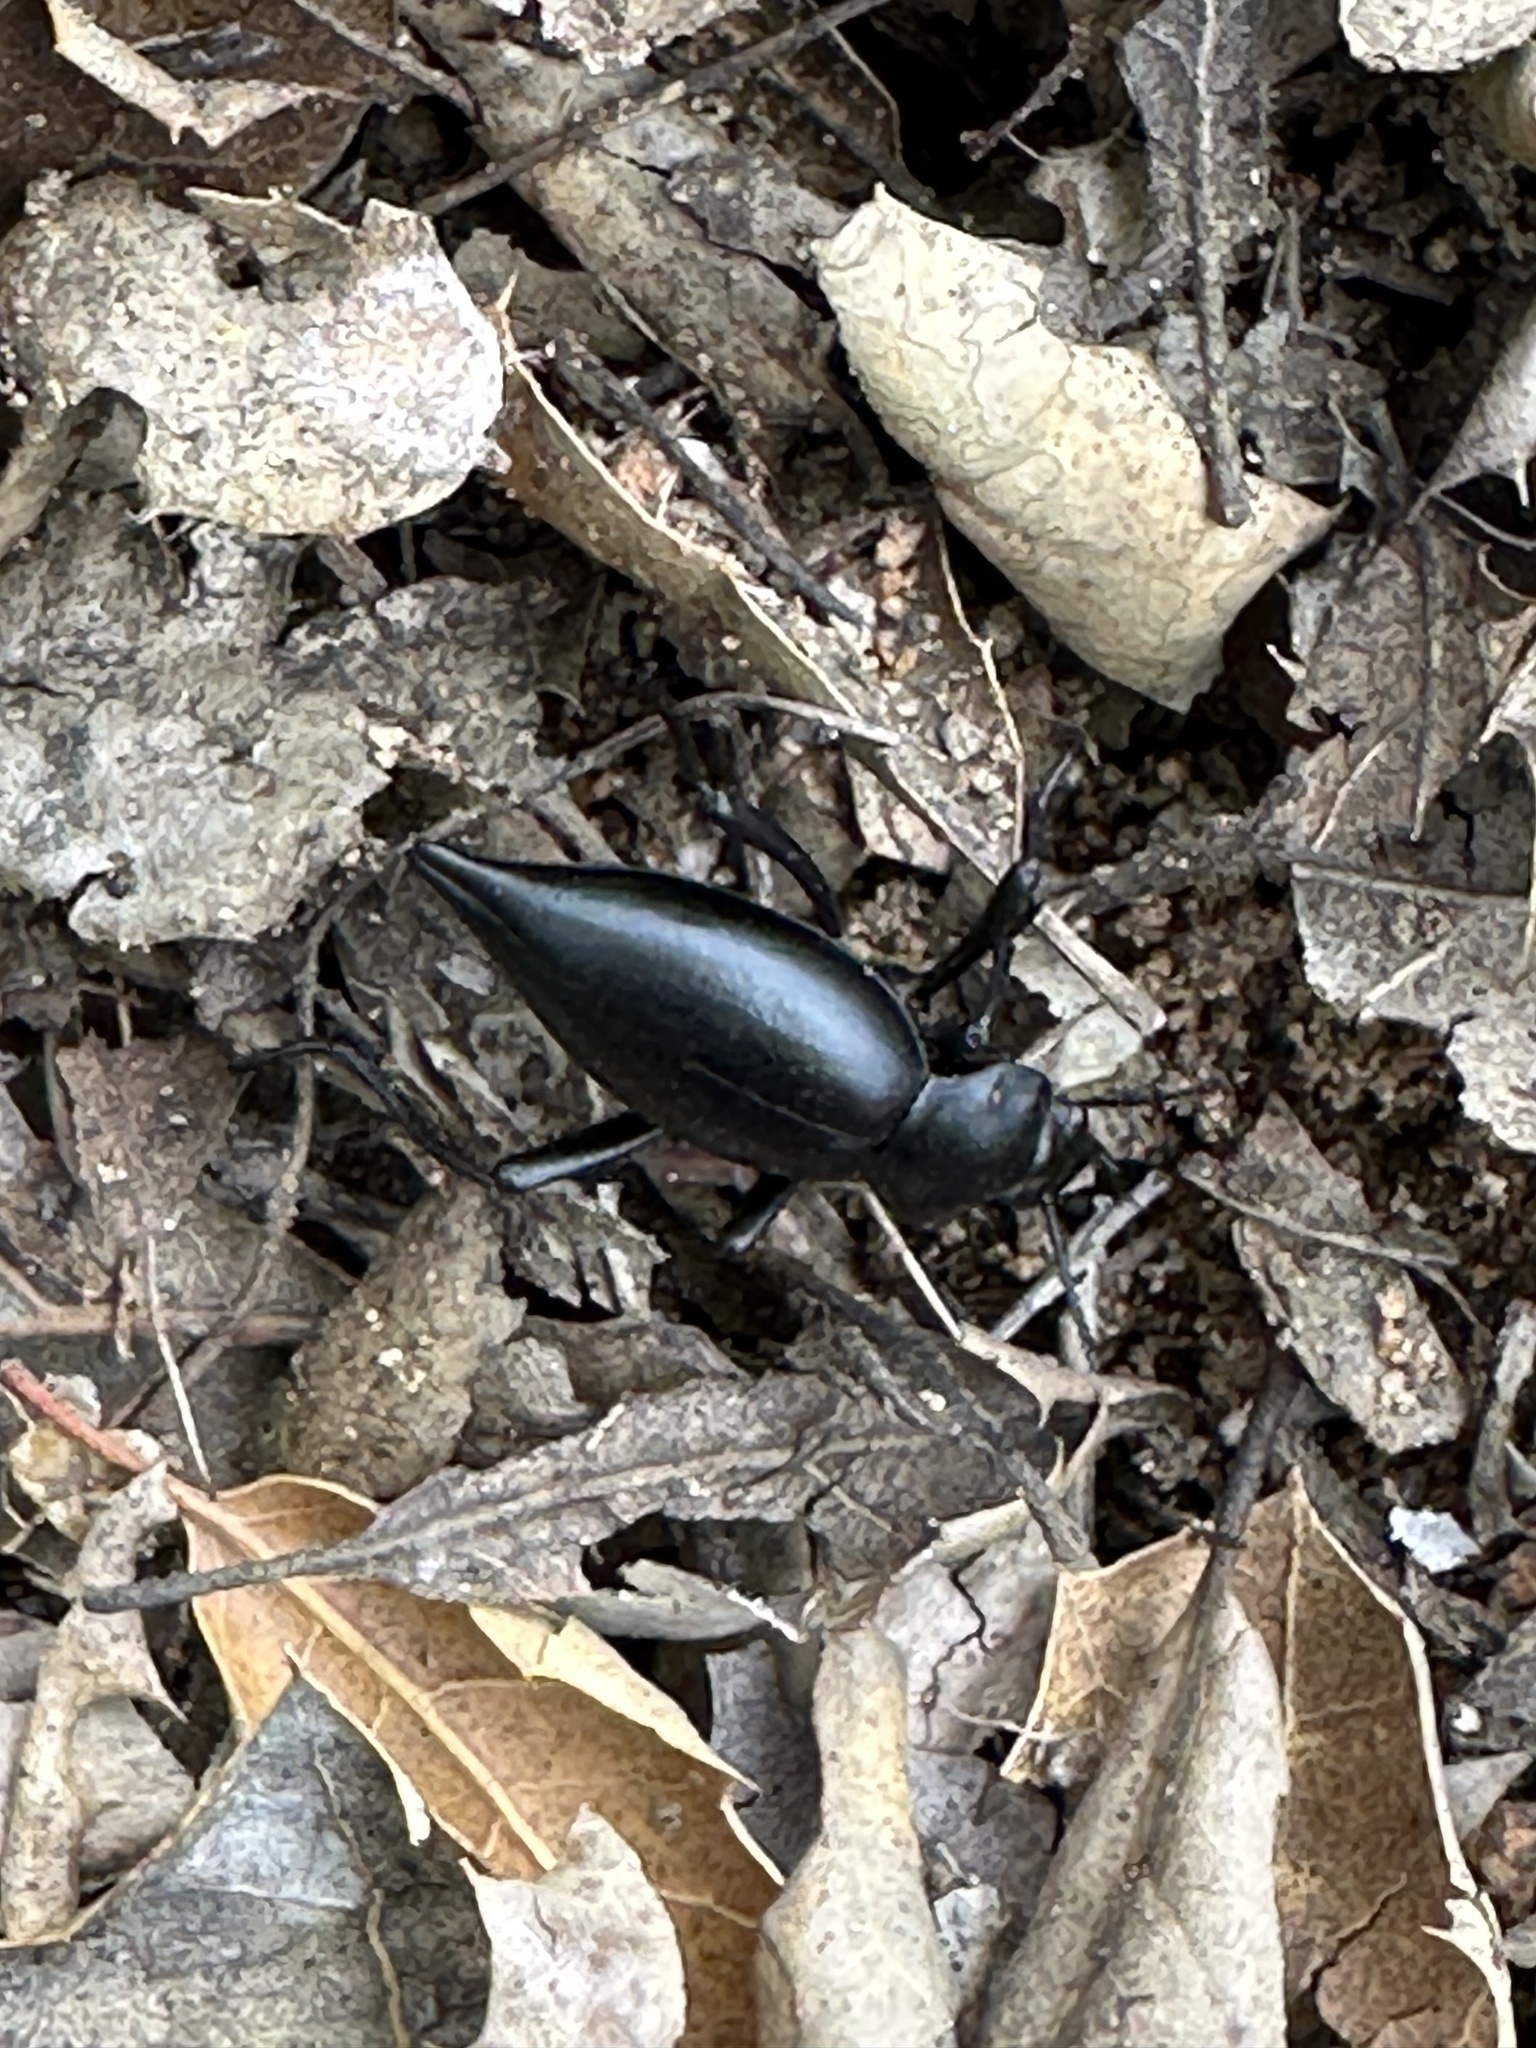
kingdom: Animalia
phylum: Arthropoda
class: Insecta
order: Coleoptera
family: Tenebrionidae
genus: Eleodes
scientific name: Eleodes acuticauda
